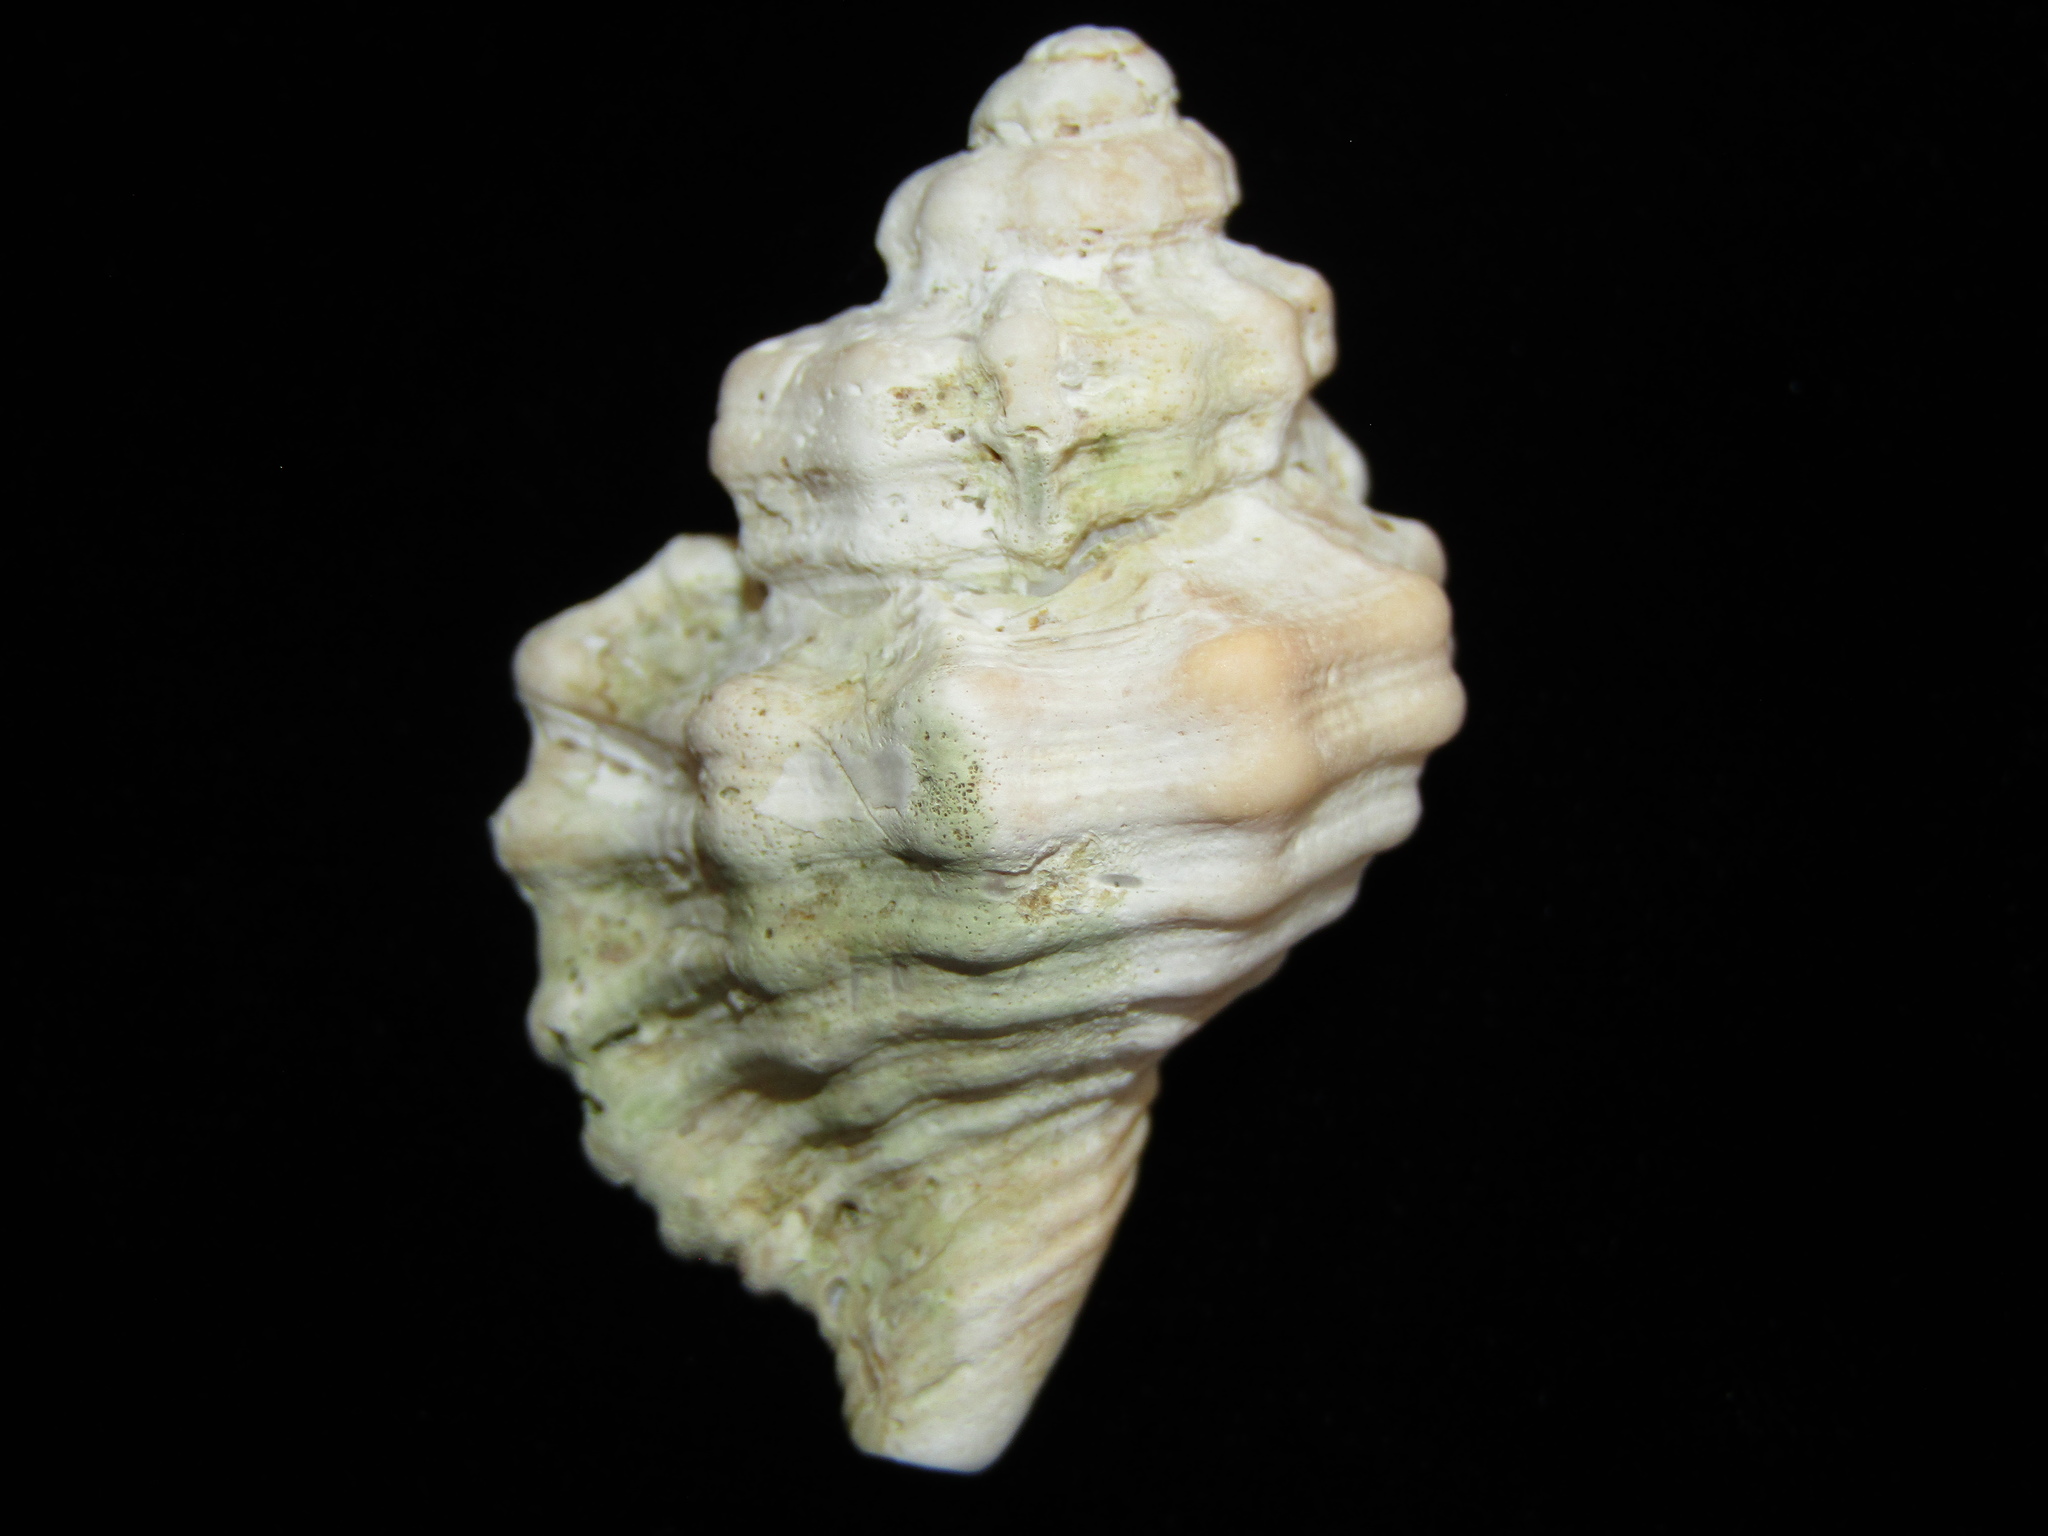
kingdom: Animalia
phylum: Mollusca
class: Gastropoda
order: Littorinimorpha
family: Cymatiidae
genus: Monoplex
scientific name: Monoplex exaratus
